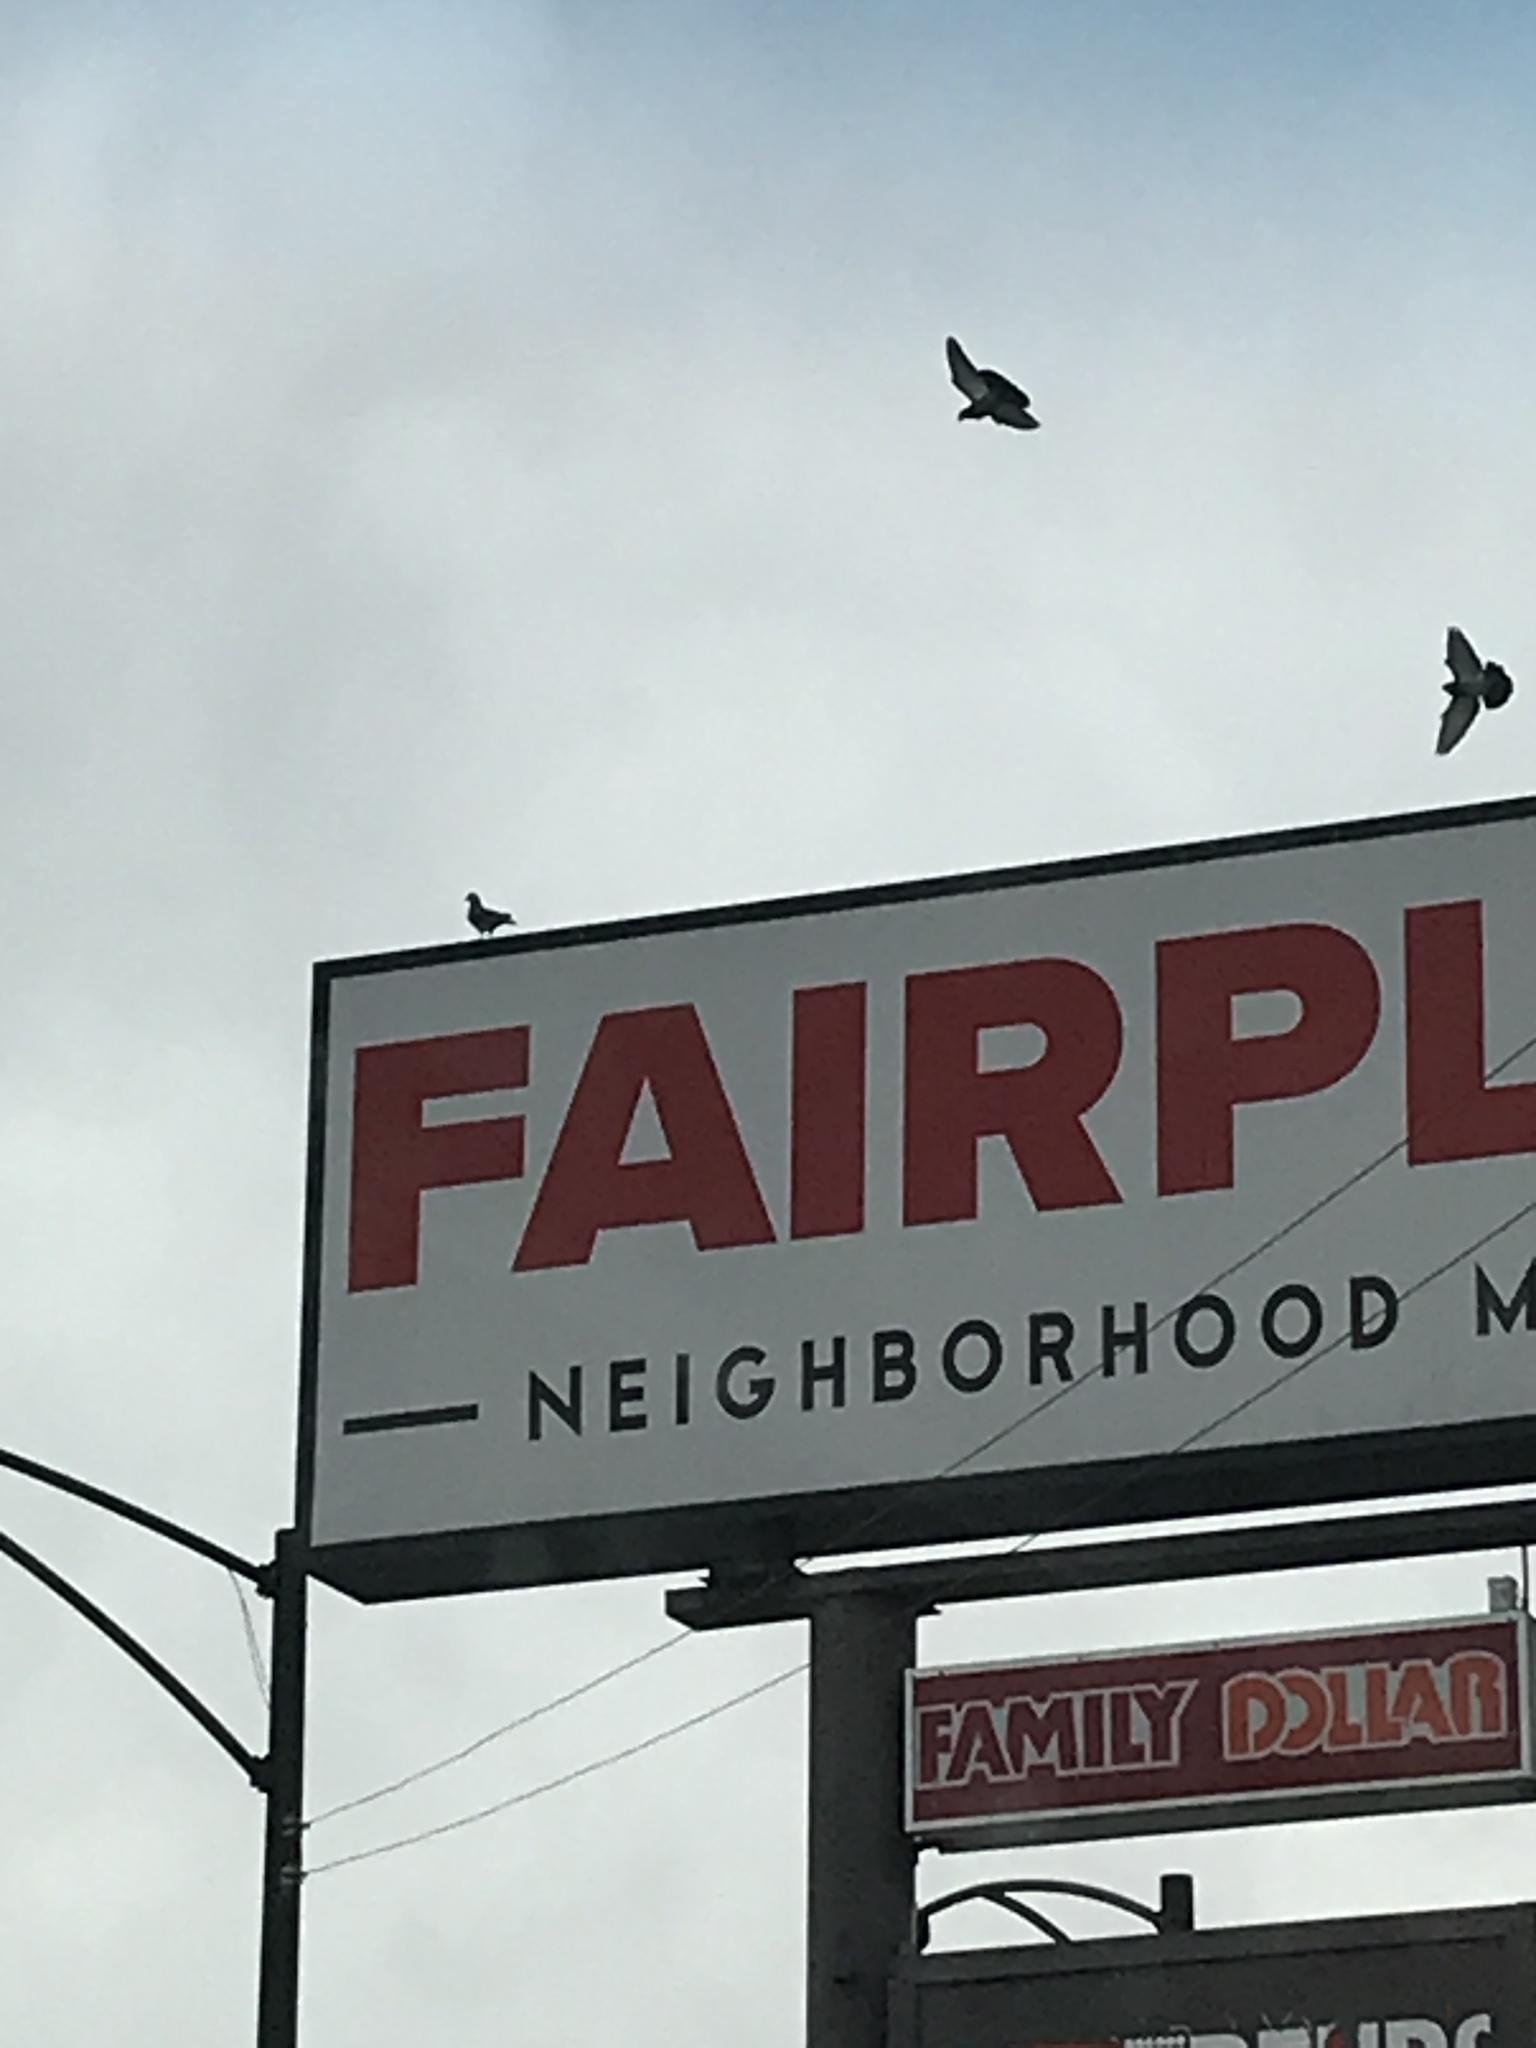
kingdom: Animalia
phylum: Chordata
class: Aves
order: Columbiformes
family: Columbidae
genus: Columba
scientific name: Columba livia
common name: Rock pigeon
